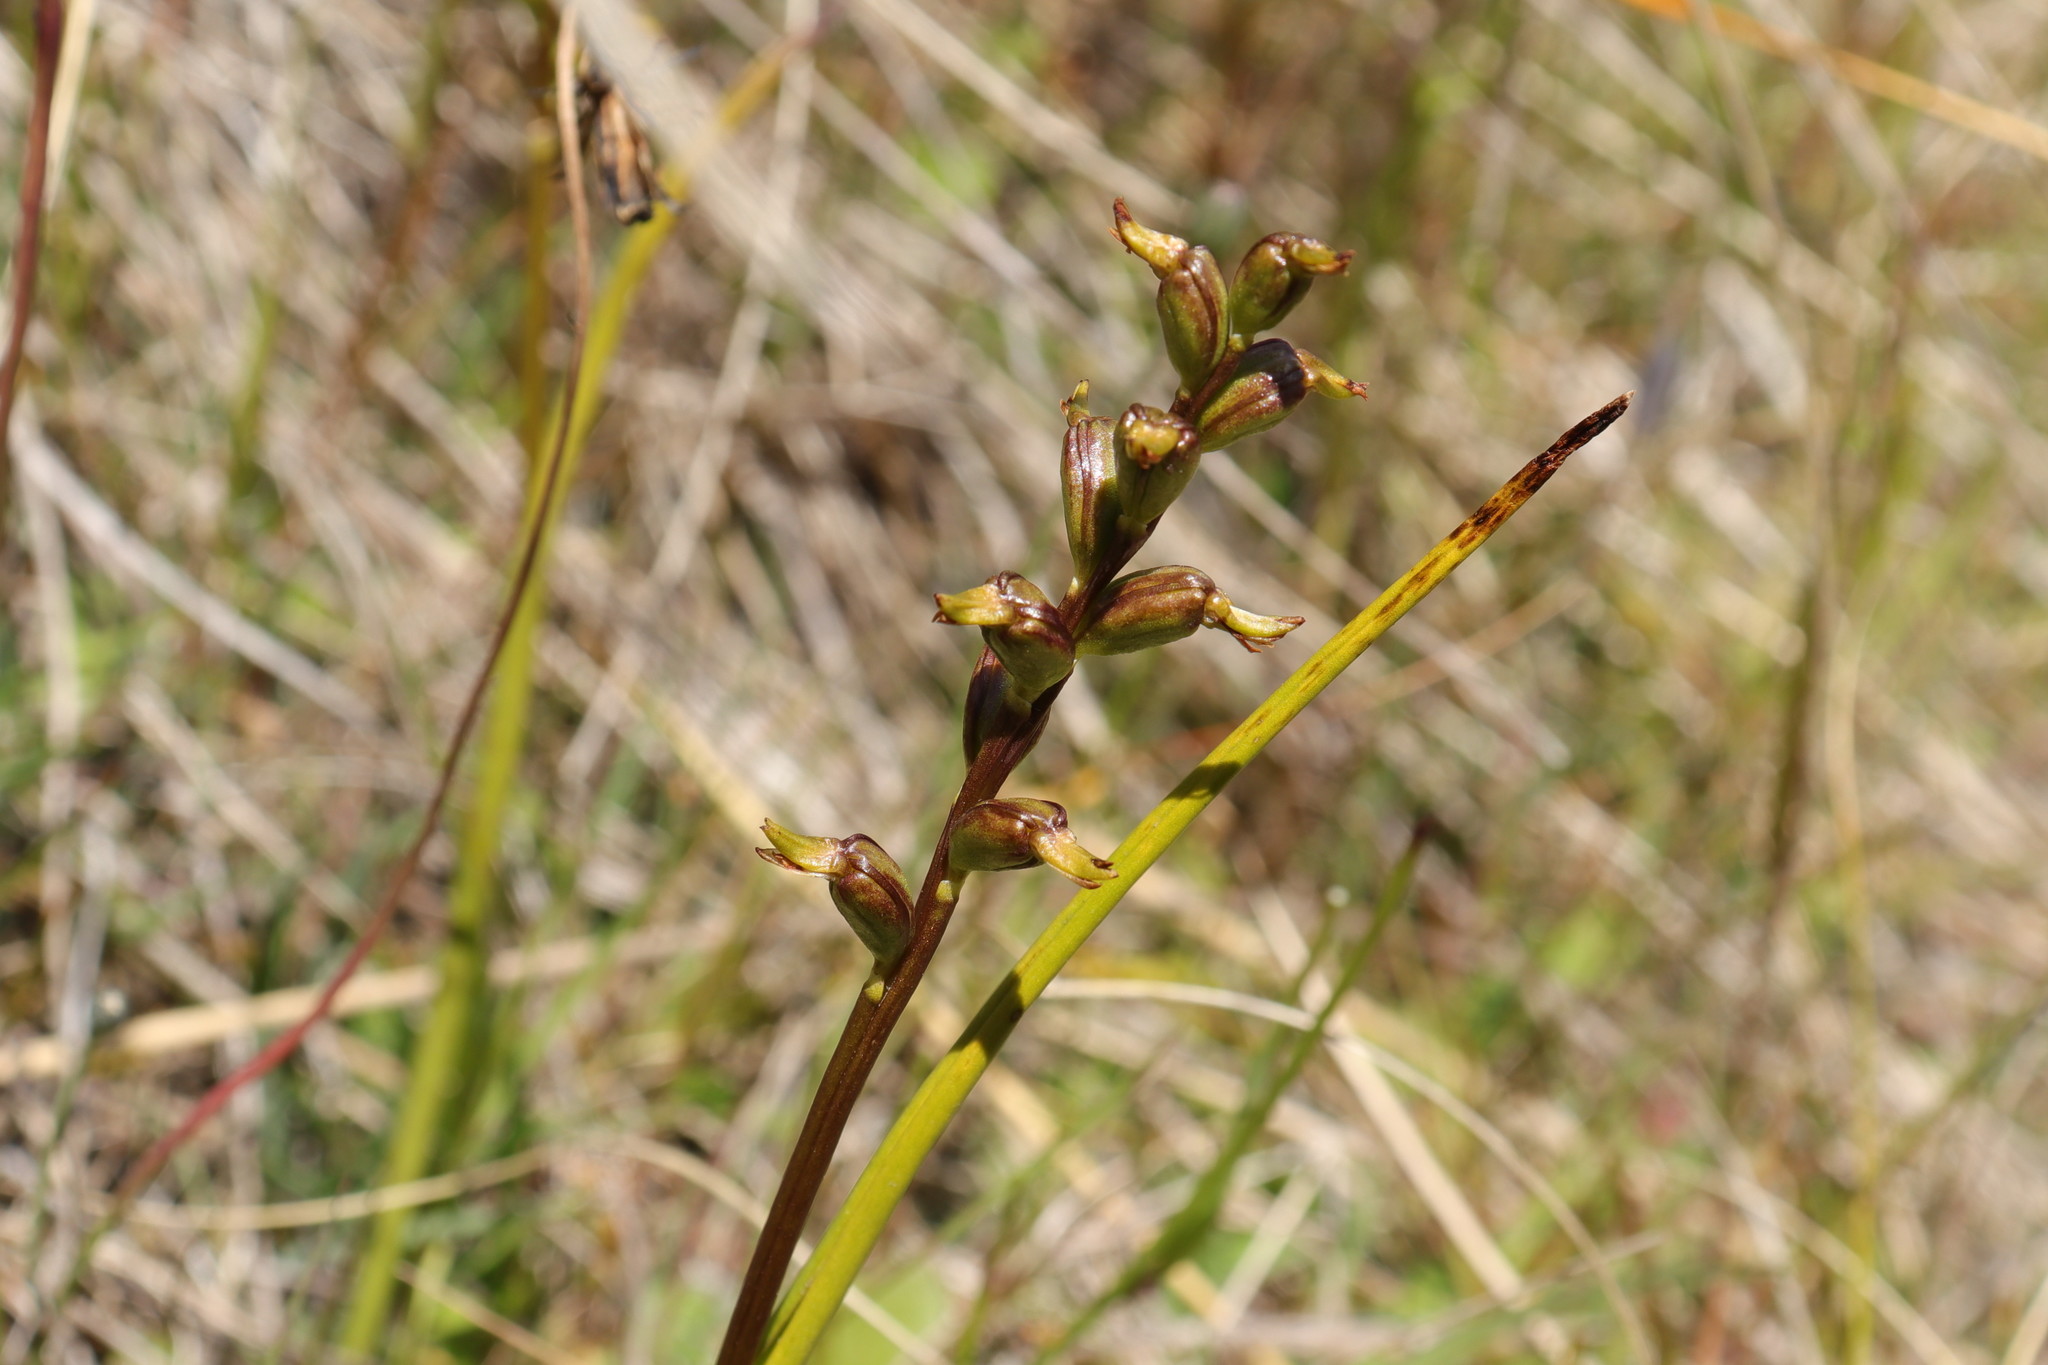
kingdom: Plantae
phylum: Tracheophyta
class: Liliopsida
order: Asparagales
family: Orchidaceae
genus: Prasophyllum
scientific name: Prasophyllum colensoi
